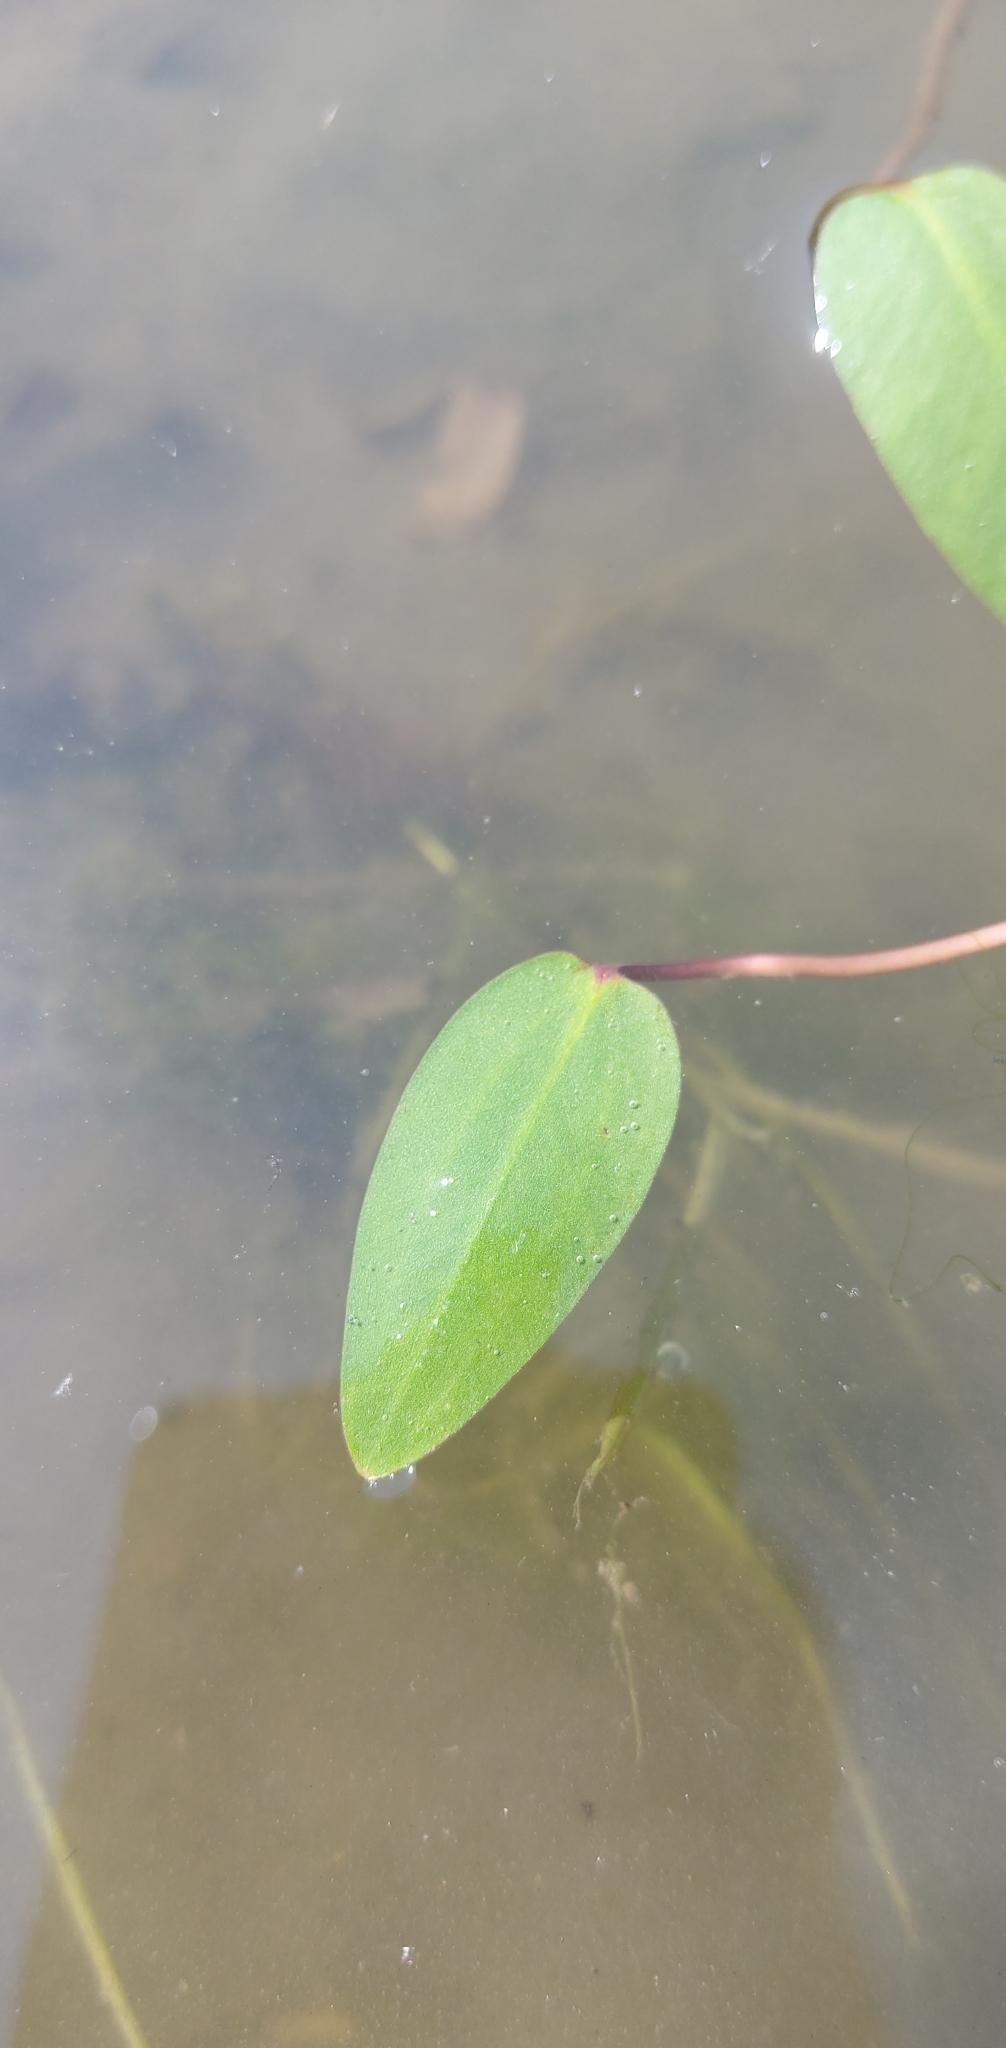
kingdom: Plantae
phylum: Tracheophyta
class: Magnoliopsida
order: Caryophyllales
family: Polygonaceae
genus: Persicaria
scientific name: Persicaria amphibia
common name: Amphibious bistort
